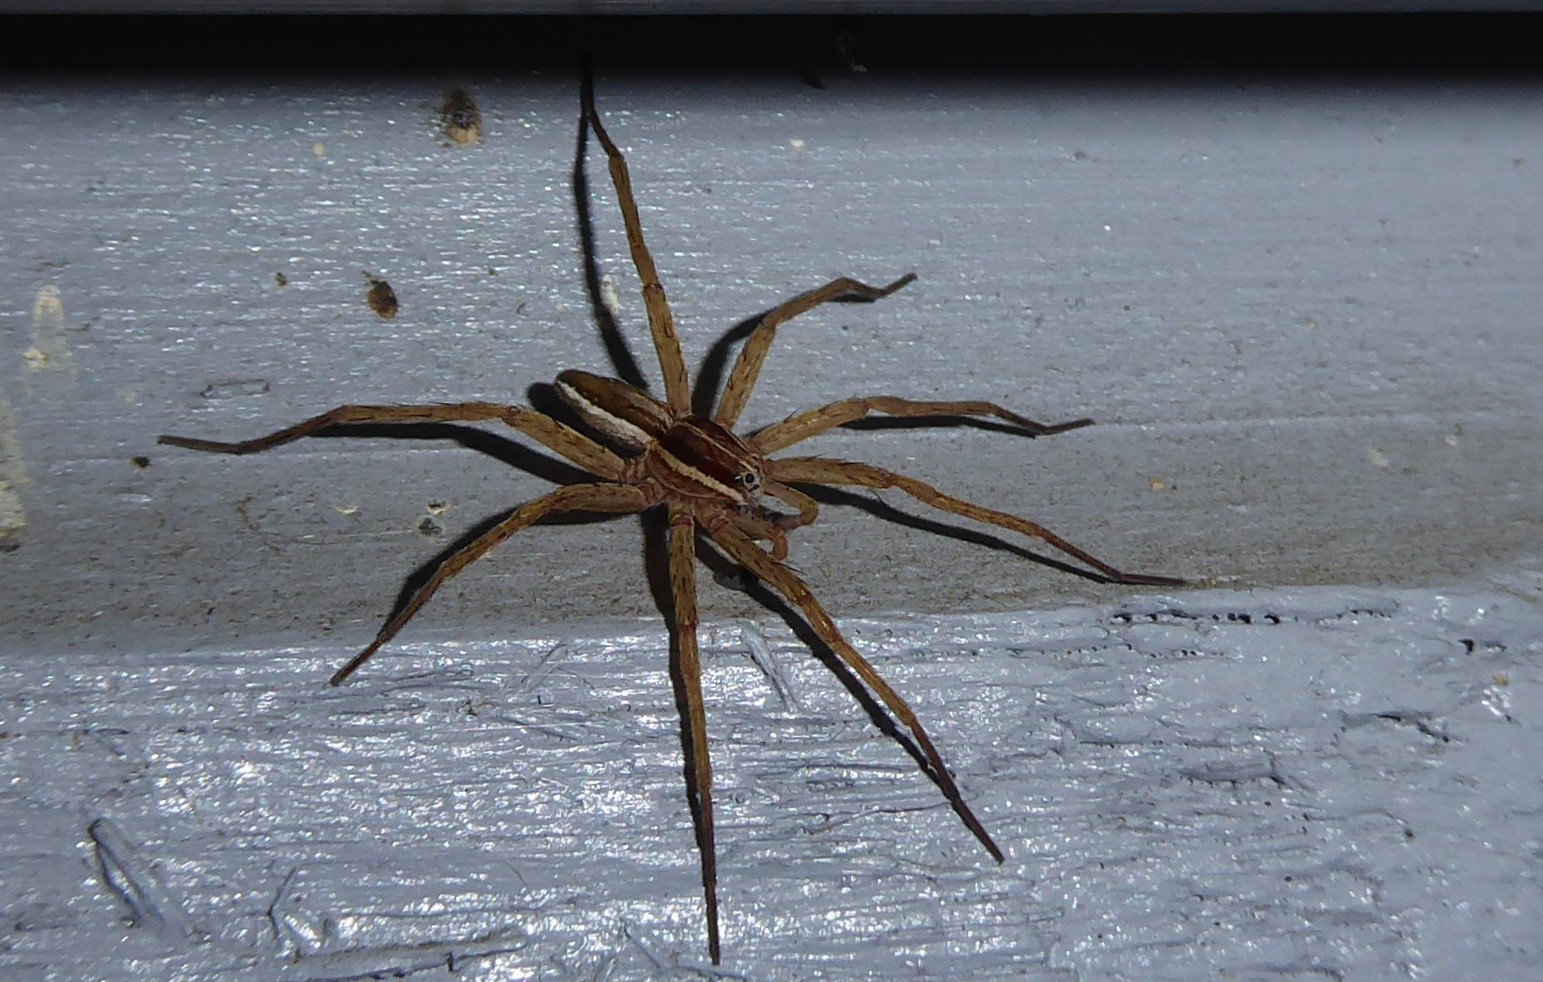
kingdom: Animalia
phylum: Arthropoda
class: Arachnida
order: Araneae
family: Pisauridae
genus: Dolomedes
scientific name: Dolomedes minor
